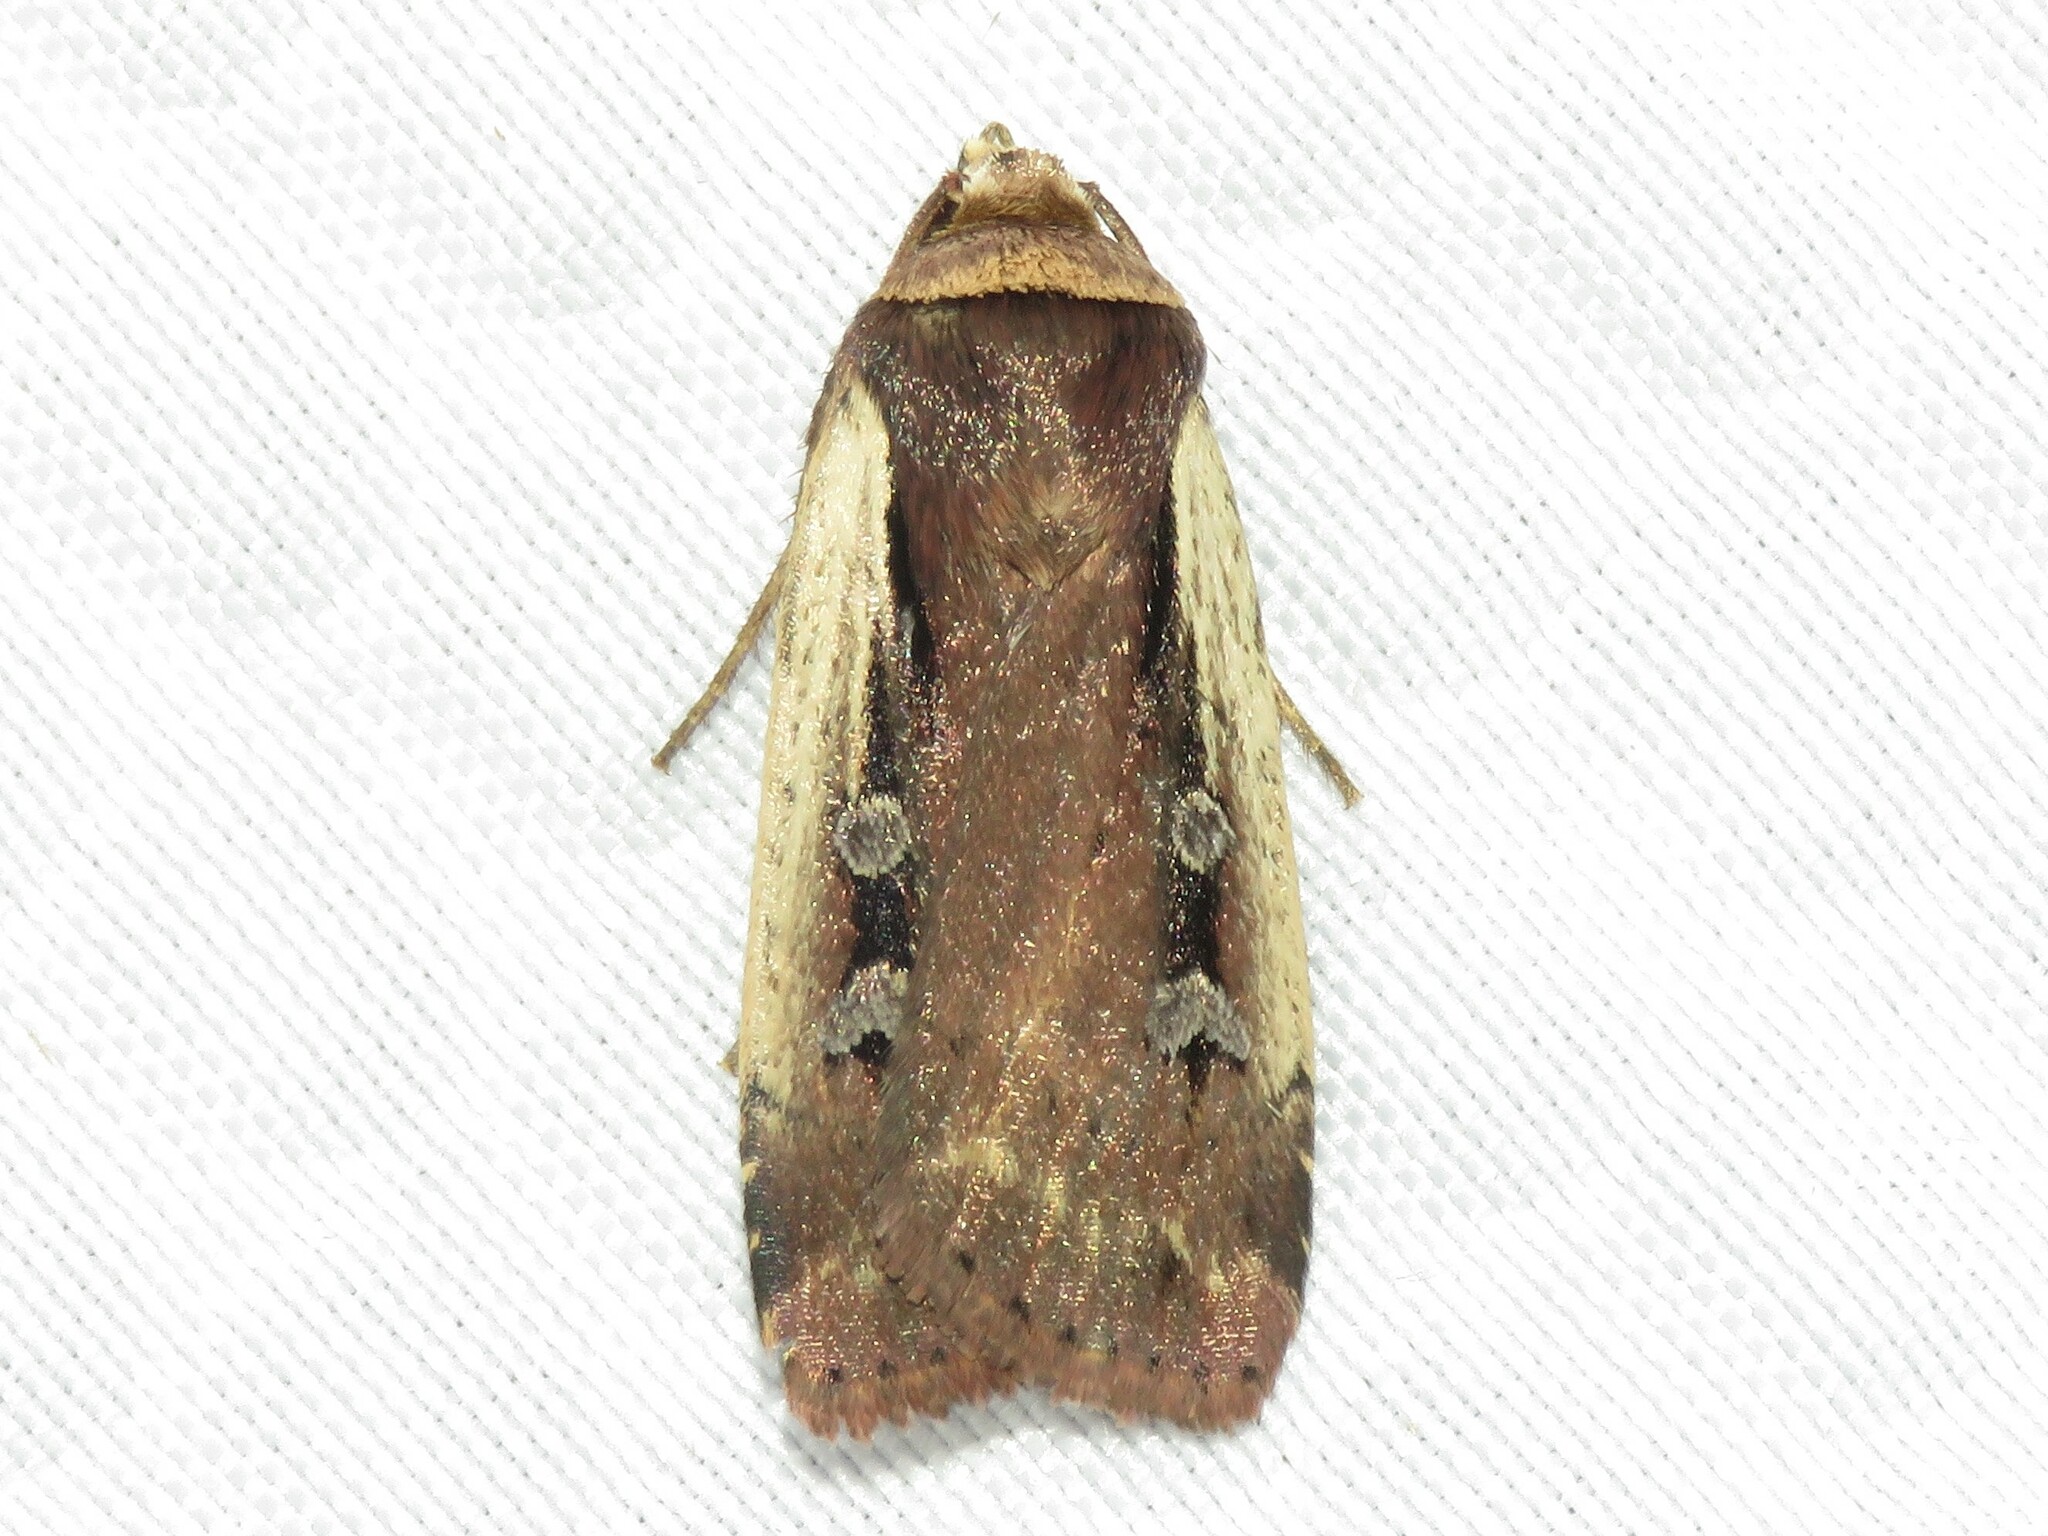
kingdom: Animalia
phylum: Arthropoda
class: Insecta
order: Lepidoptera
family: Noctuidae
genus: Ochropleura
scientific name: Ochropleura implecta
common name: Flame-shouldered dart
